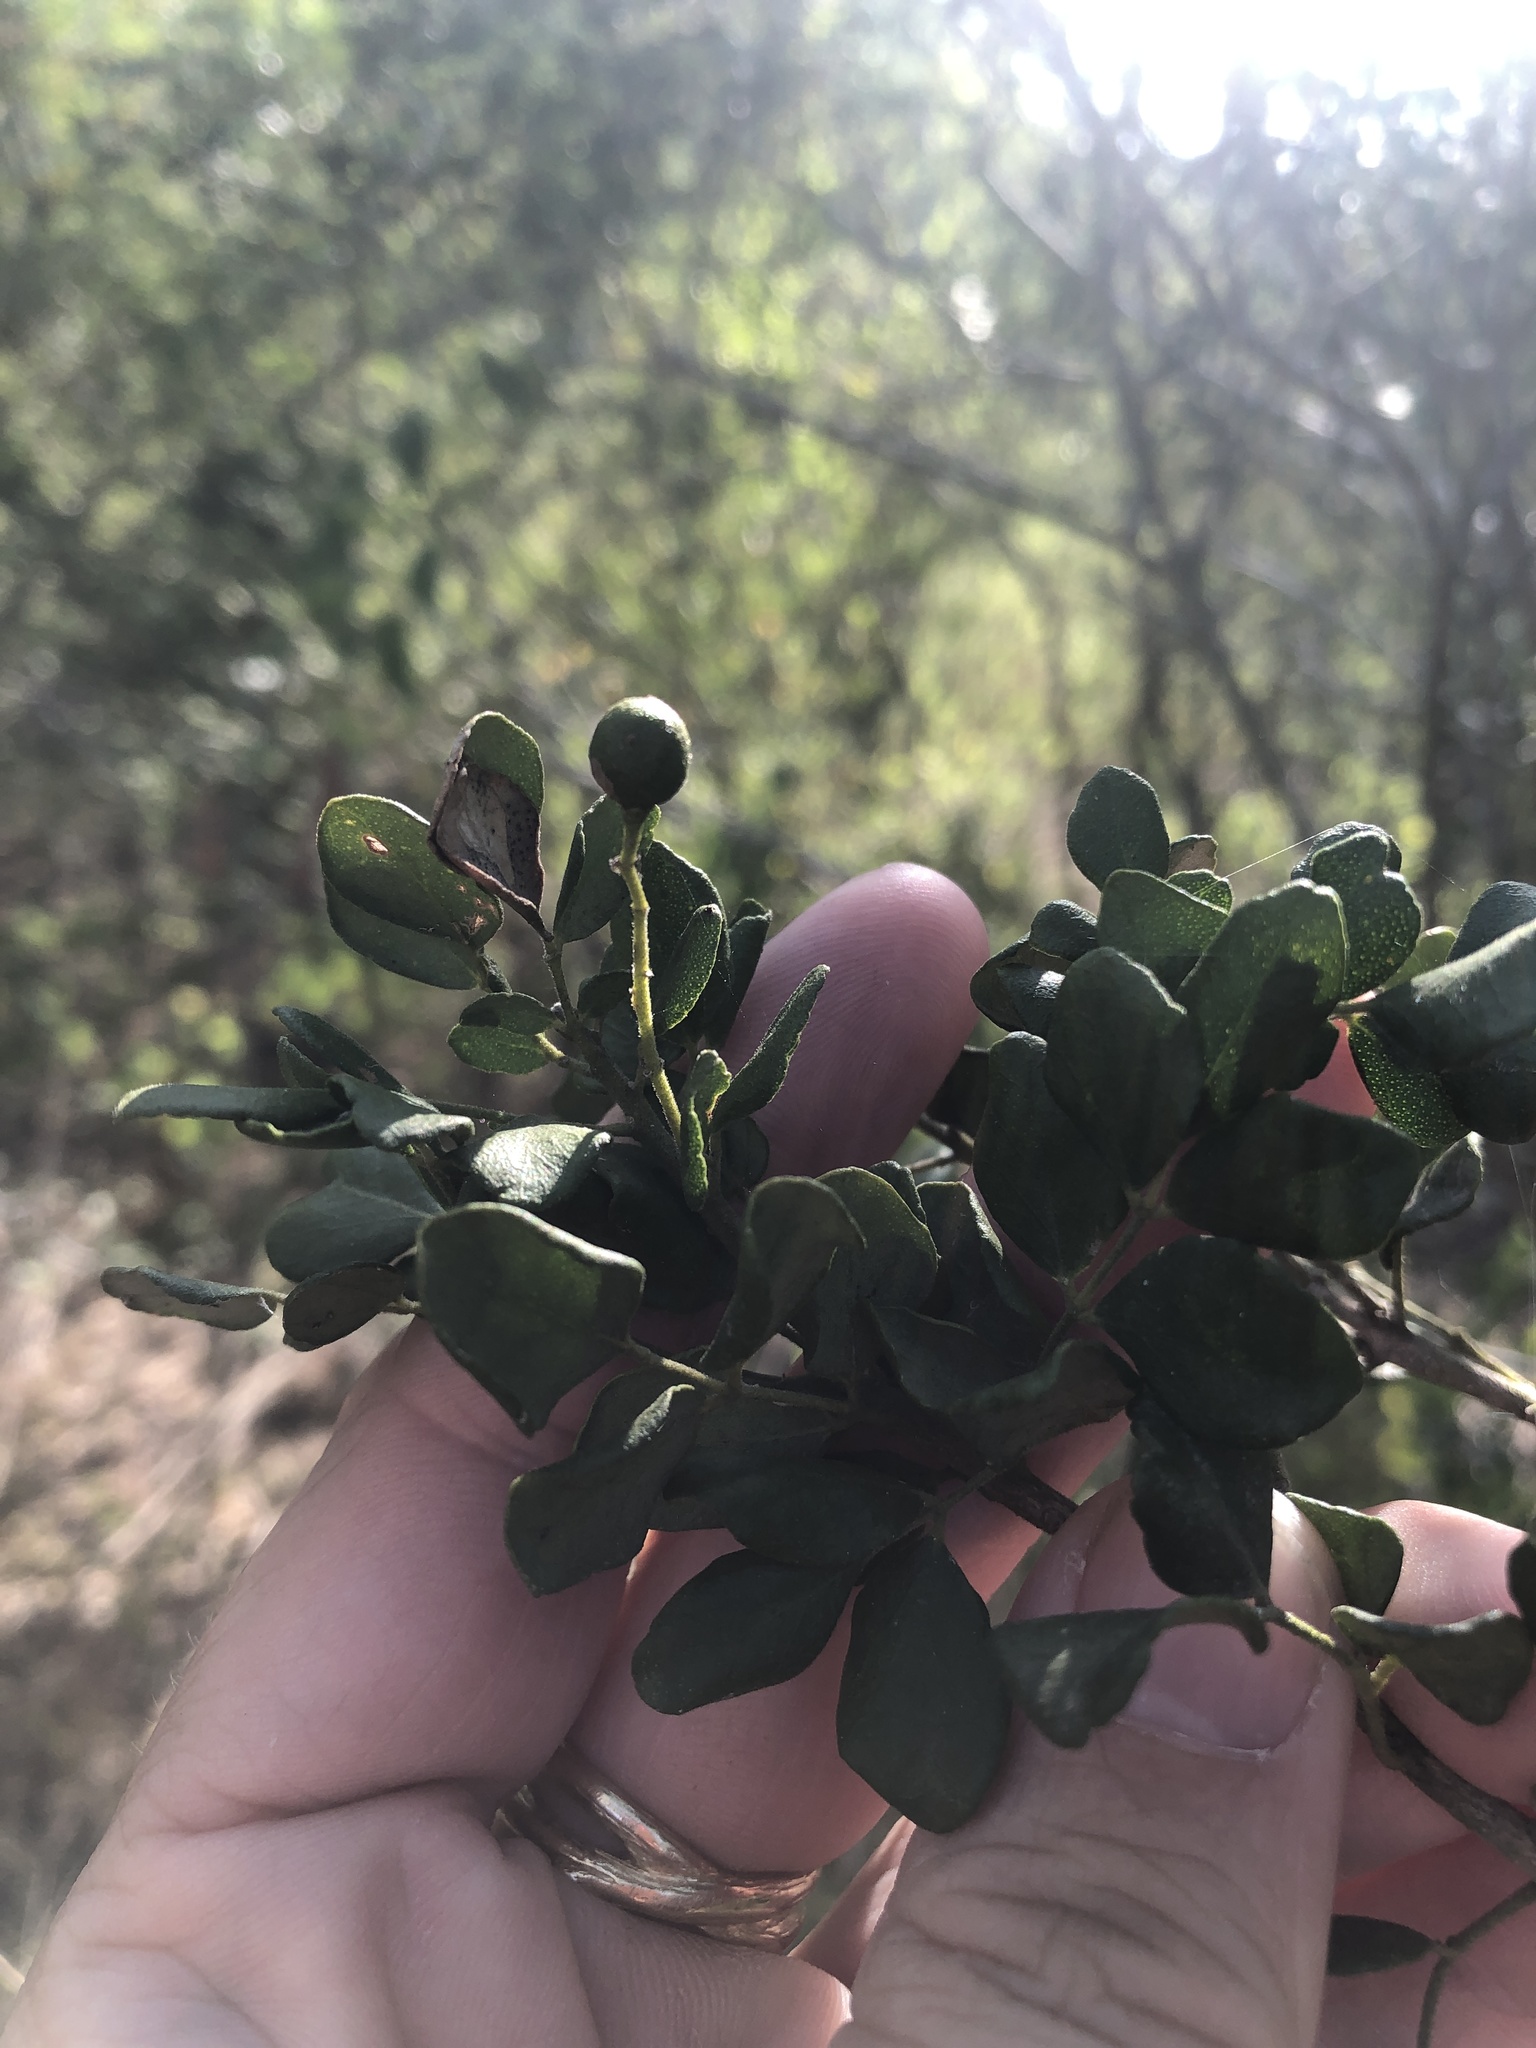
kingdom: Plantae
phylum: Tracheophyta
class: Magnoliopsida
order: Sapindales
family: Rutaceae
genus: Amyris
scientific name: Amyris madrensis
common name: Mountain torchwood
